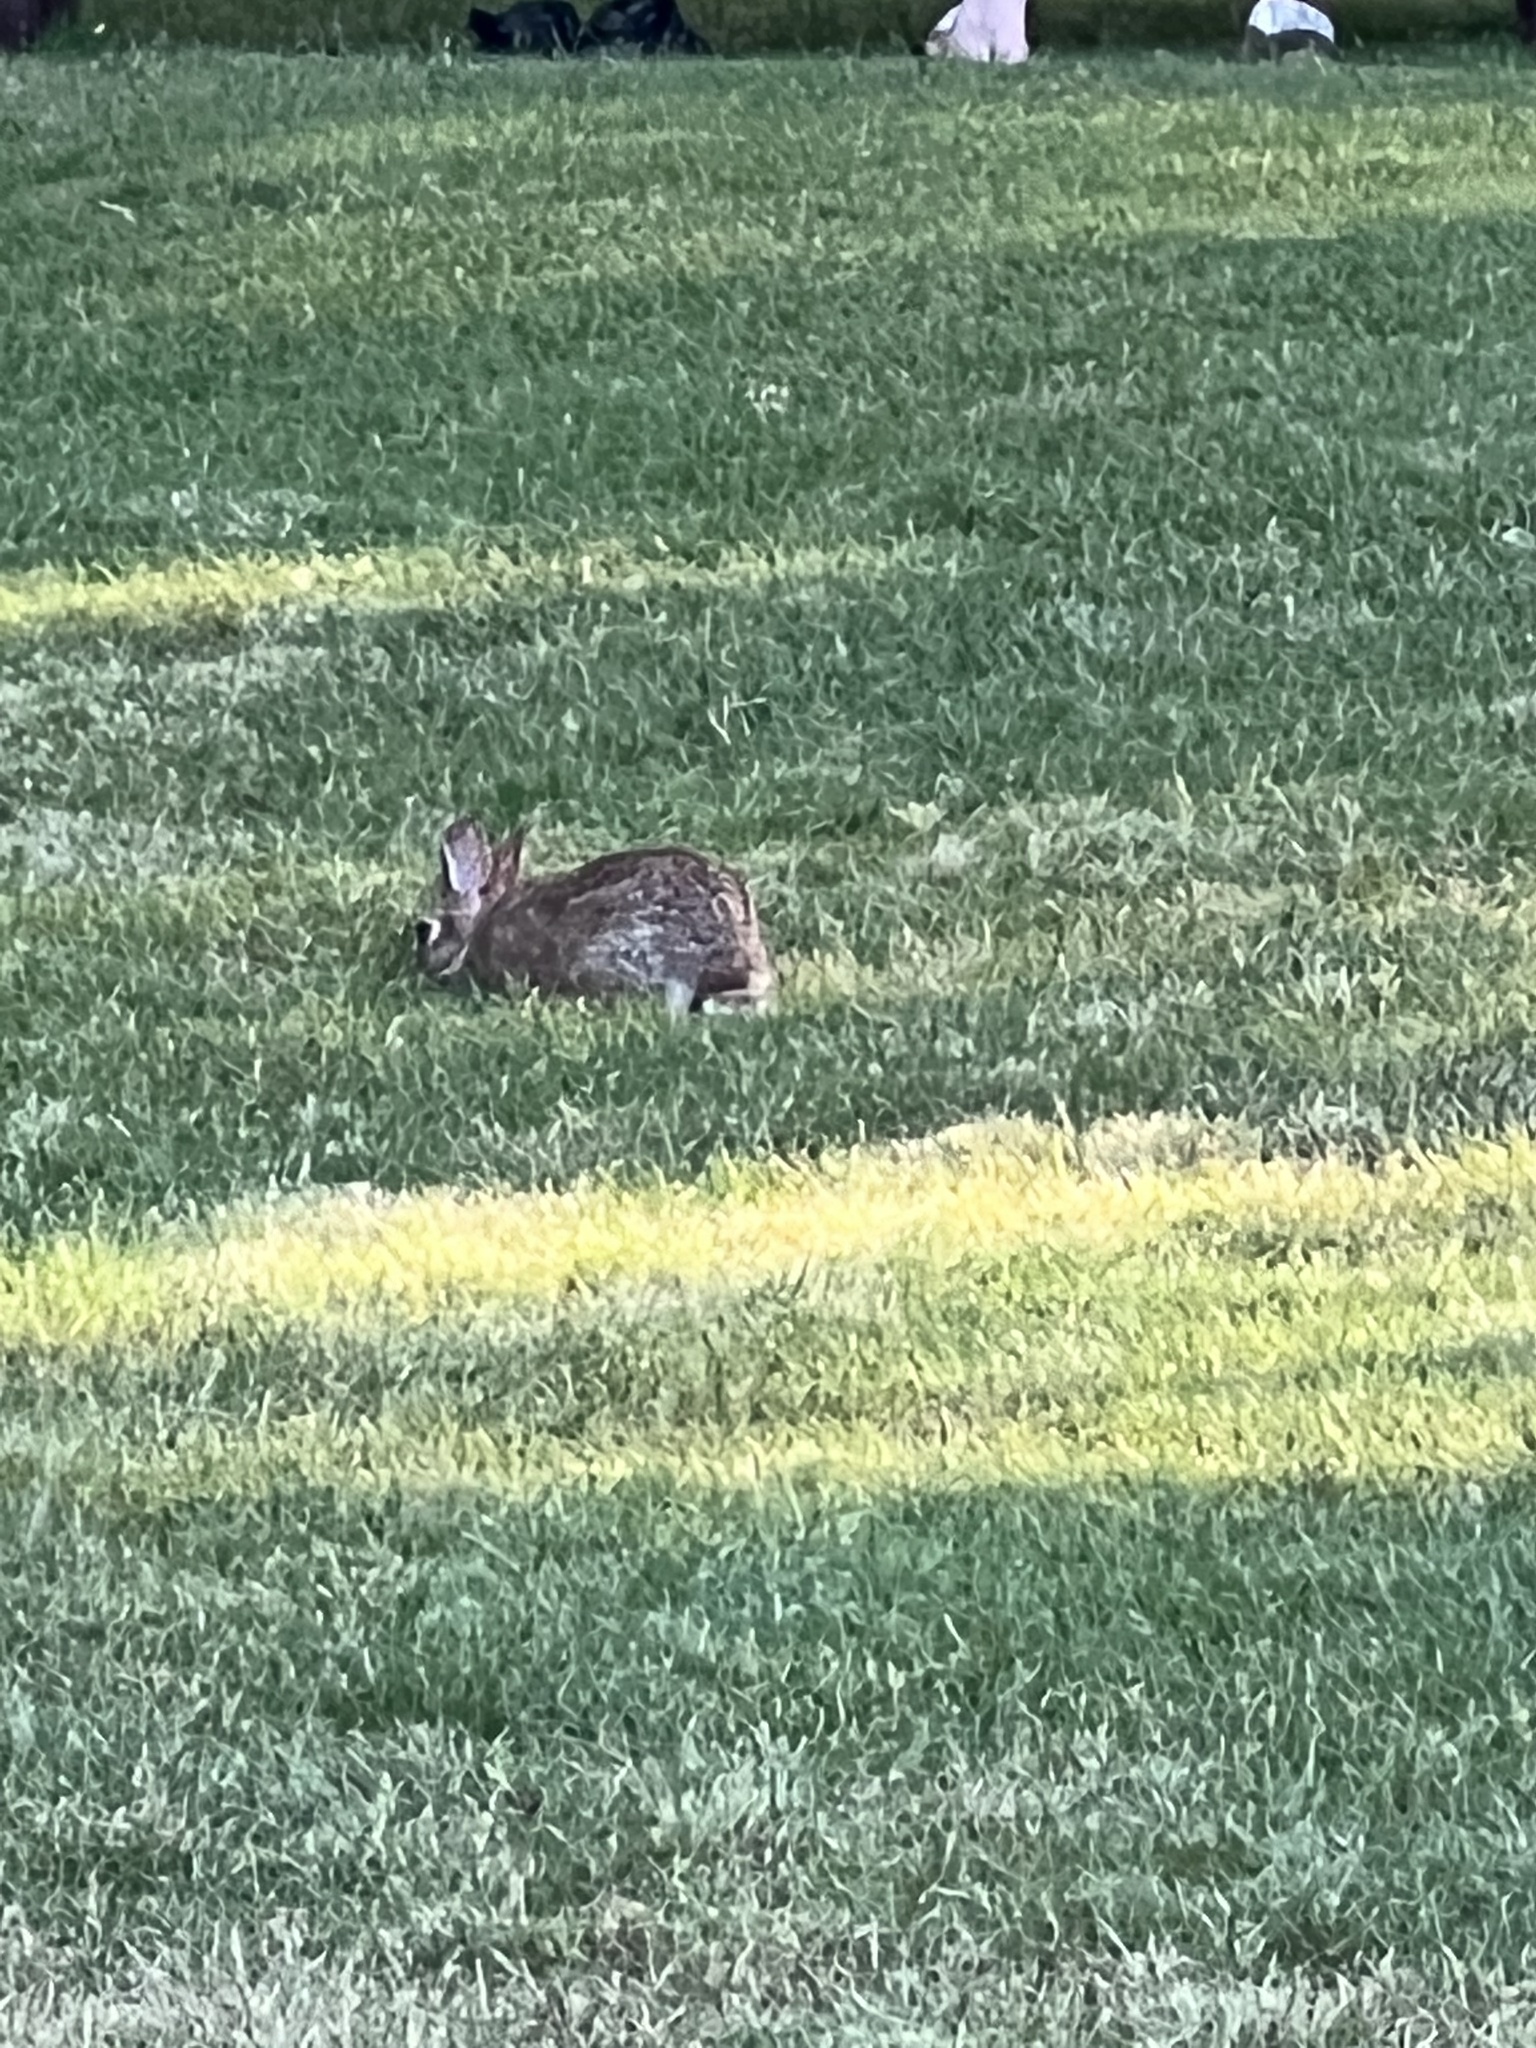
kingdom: Animalia
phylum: Chordata
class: Mammalia
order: Lagomorpha
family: Leporidae
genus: Sylvilagus
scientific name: Sylvilagus floridanus
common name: Eastern cottontail
